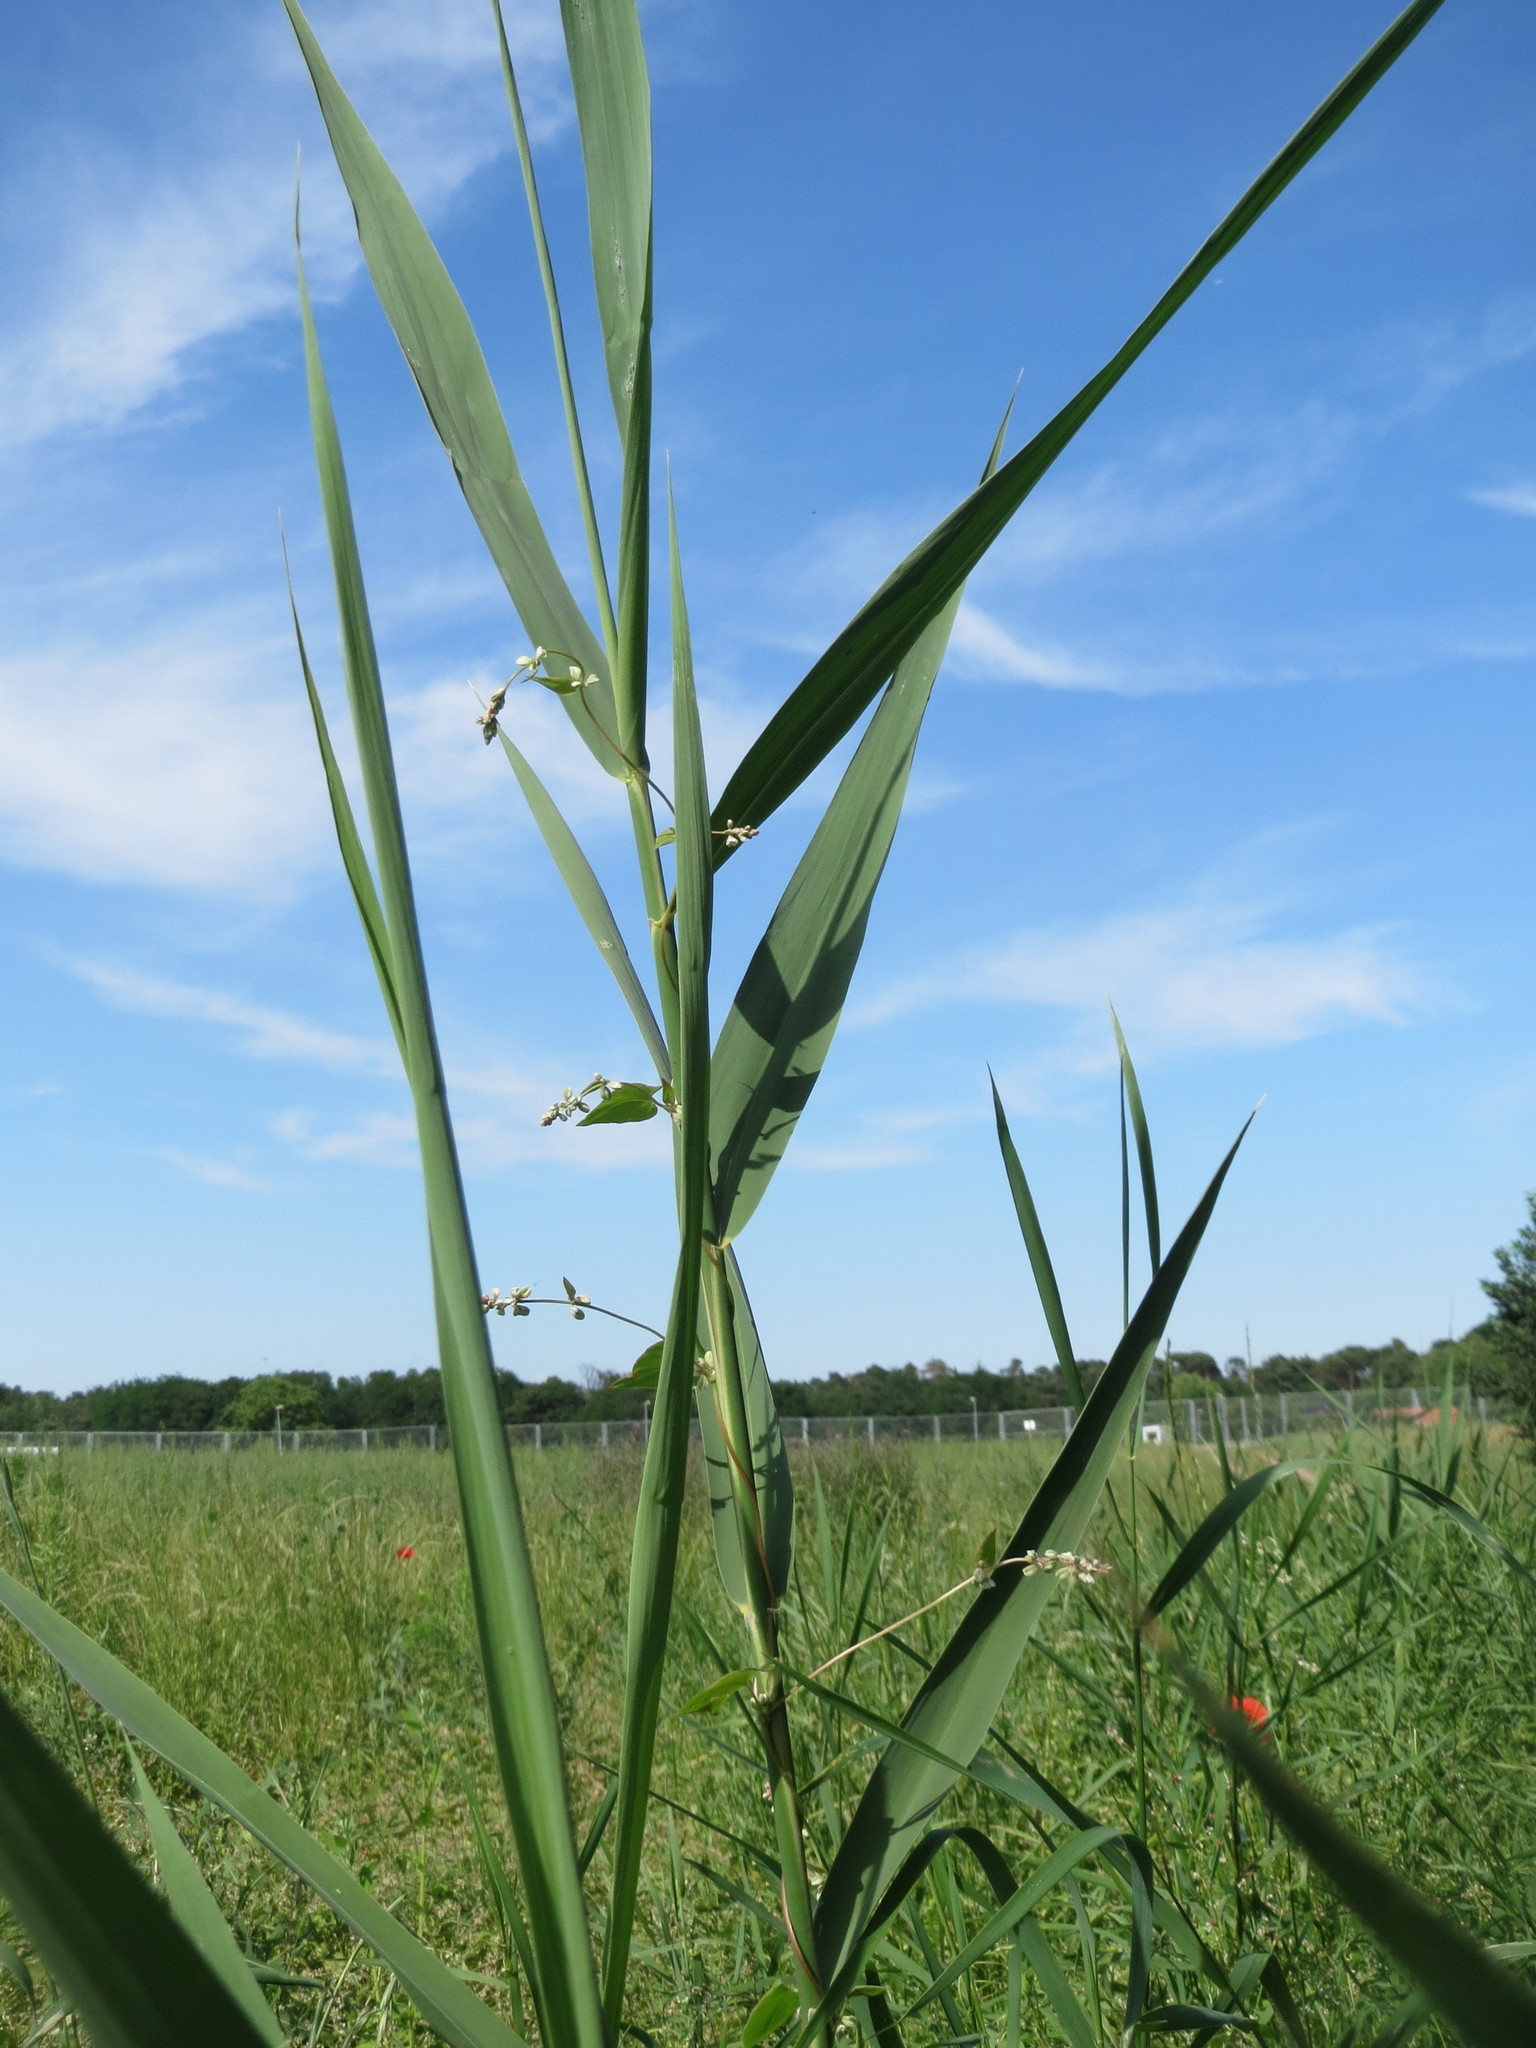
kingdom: Plantae
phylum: Tracheophyta
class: Liliopsida
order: Poales
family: Poaceae
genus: Phragmites
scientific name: Phragmites australis
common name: Common reed
